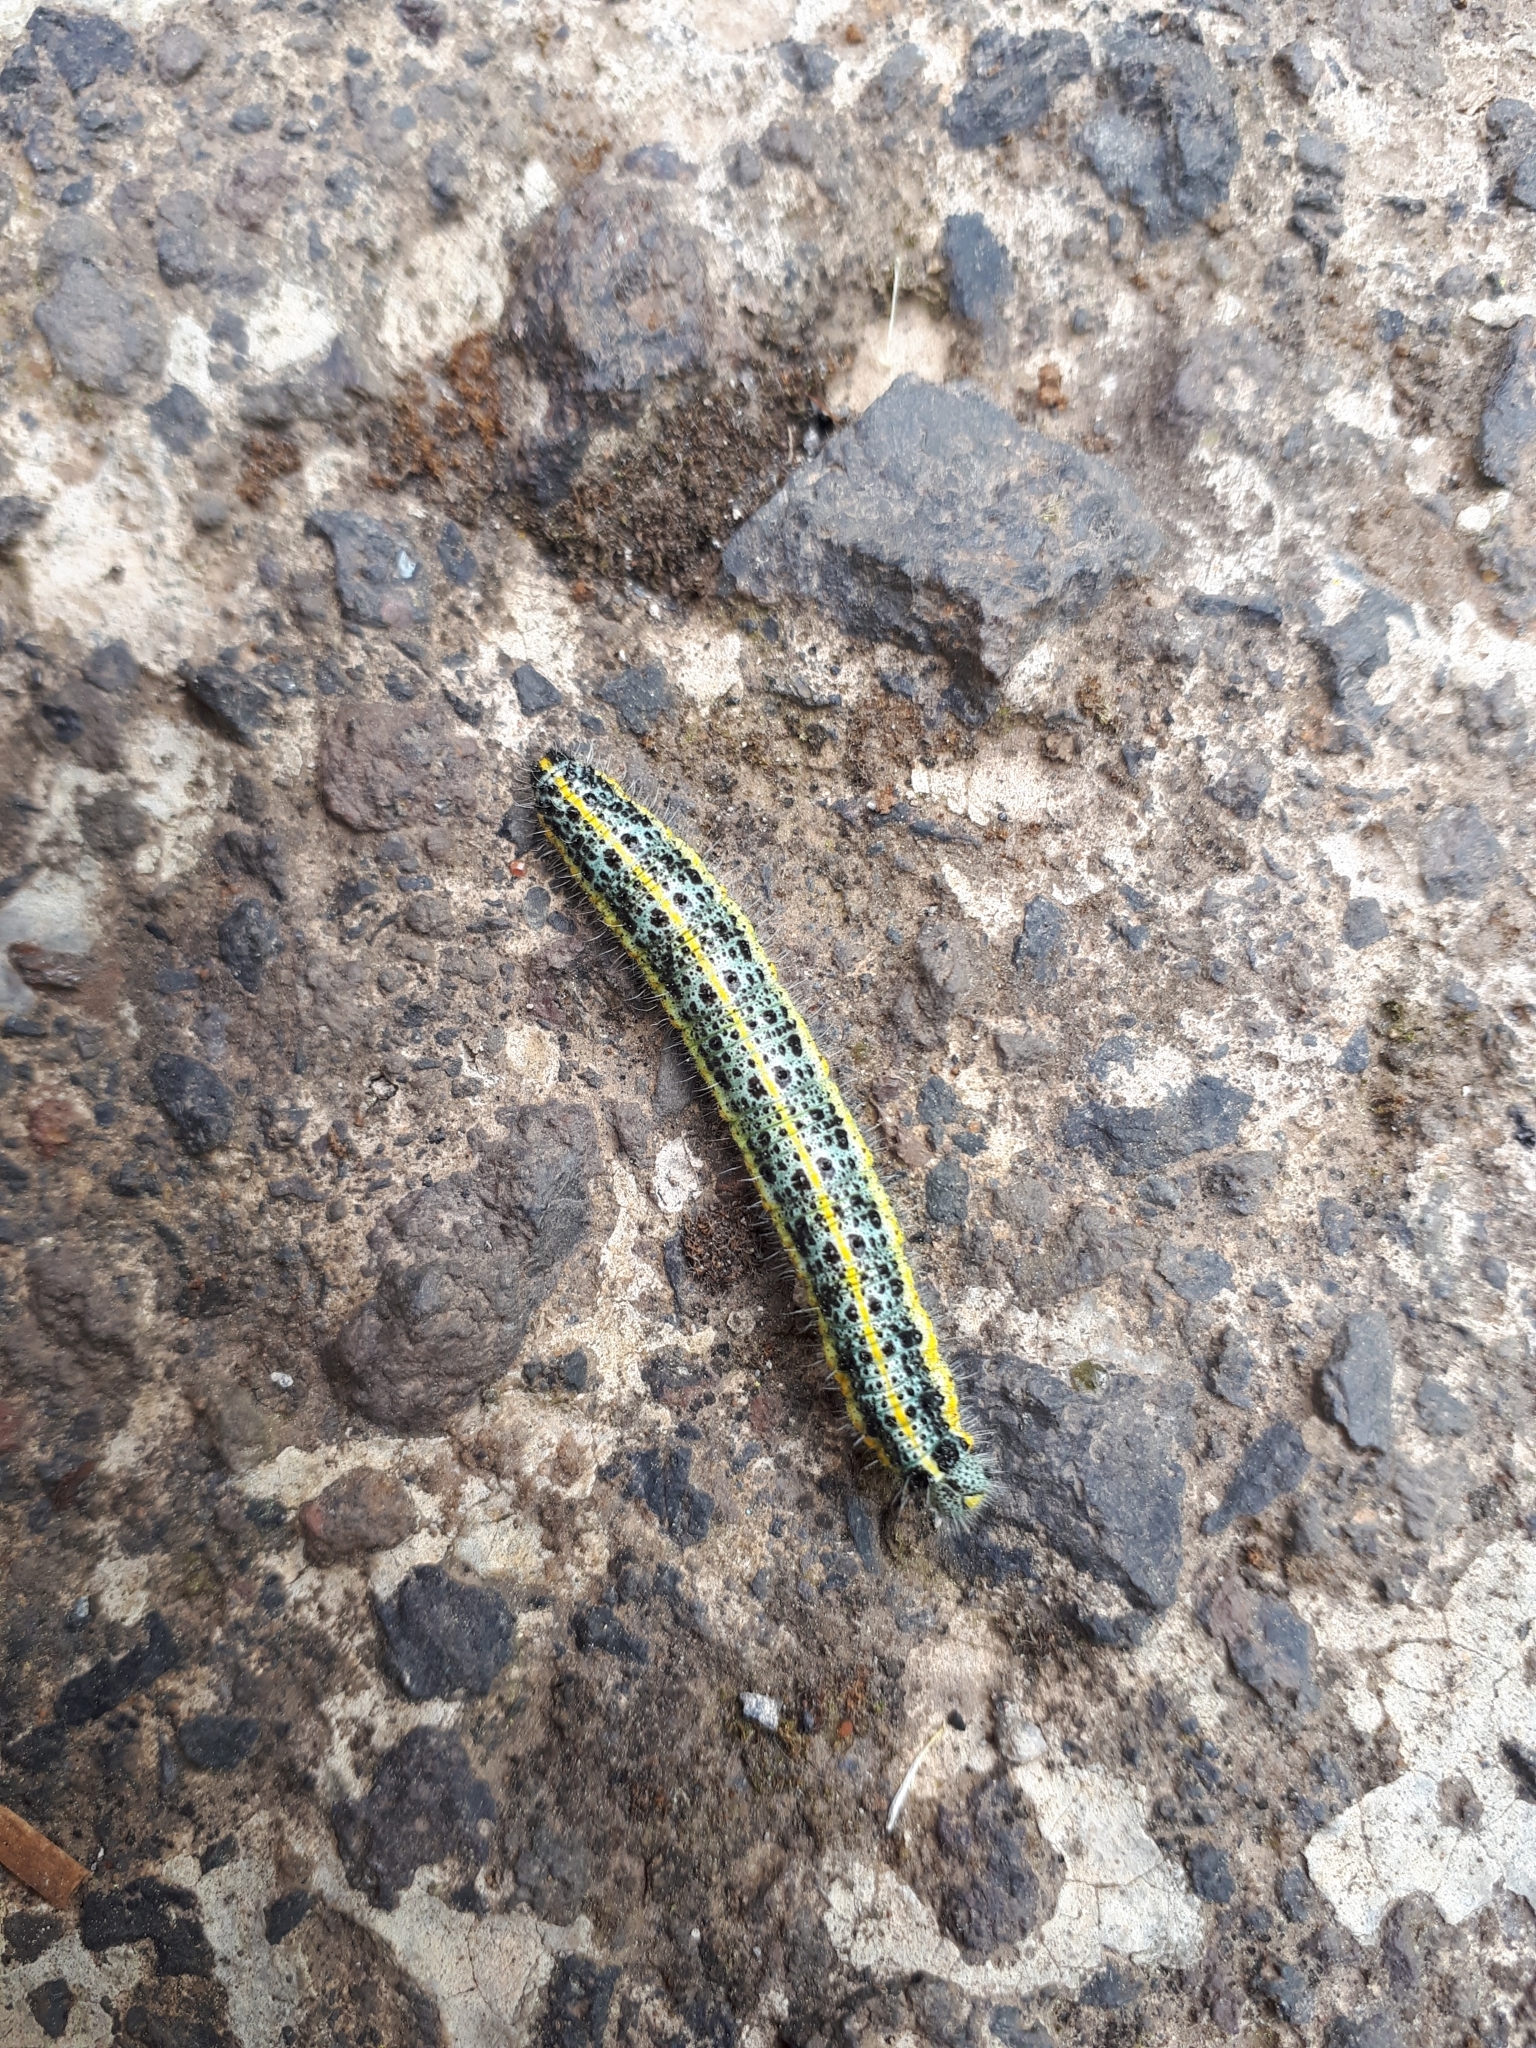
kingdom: Animalia
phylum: Arthropoda
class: Insecta
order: Lepidoptera
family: Pieridae
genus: Pieris
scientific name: Pieris cheiranthi
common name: Canary islands large white
